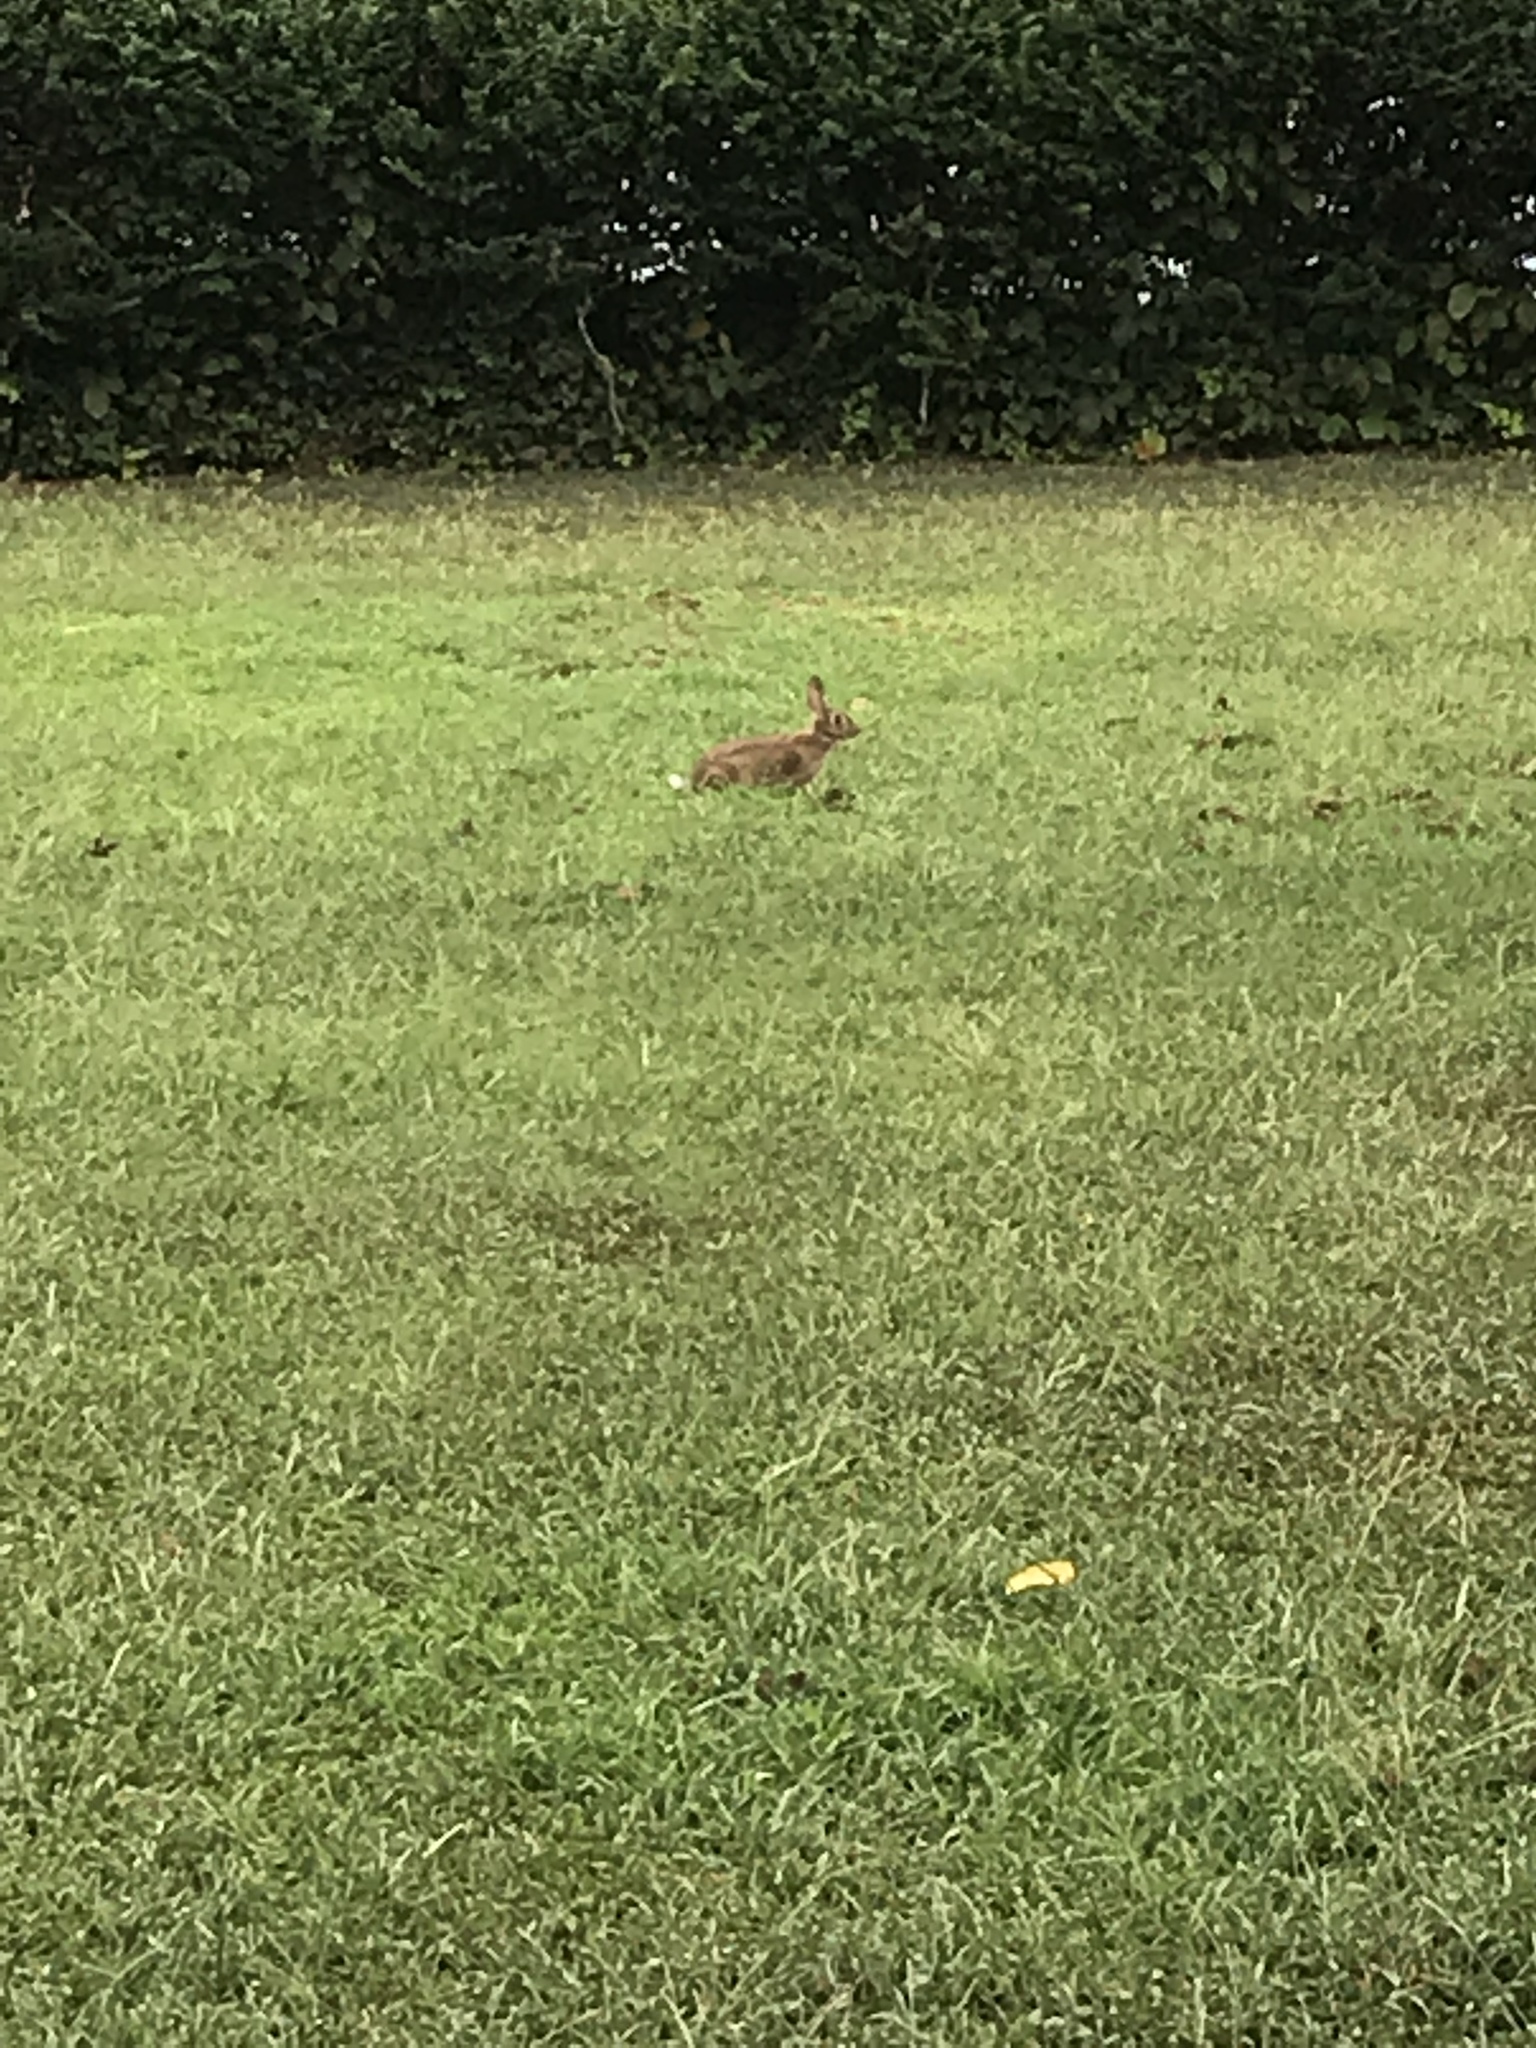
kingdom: Animalia
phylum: Chordata
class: Mammalia
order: Lagomorpha
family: Leporidae
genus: Sylvilagus
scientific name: Sylvilagus floridanus
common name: Eastern cottontail
